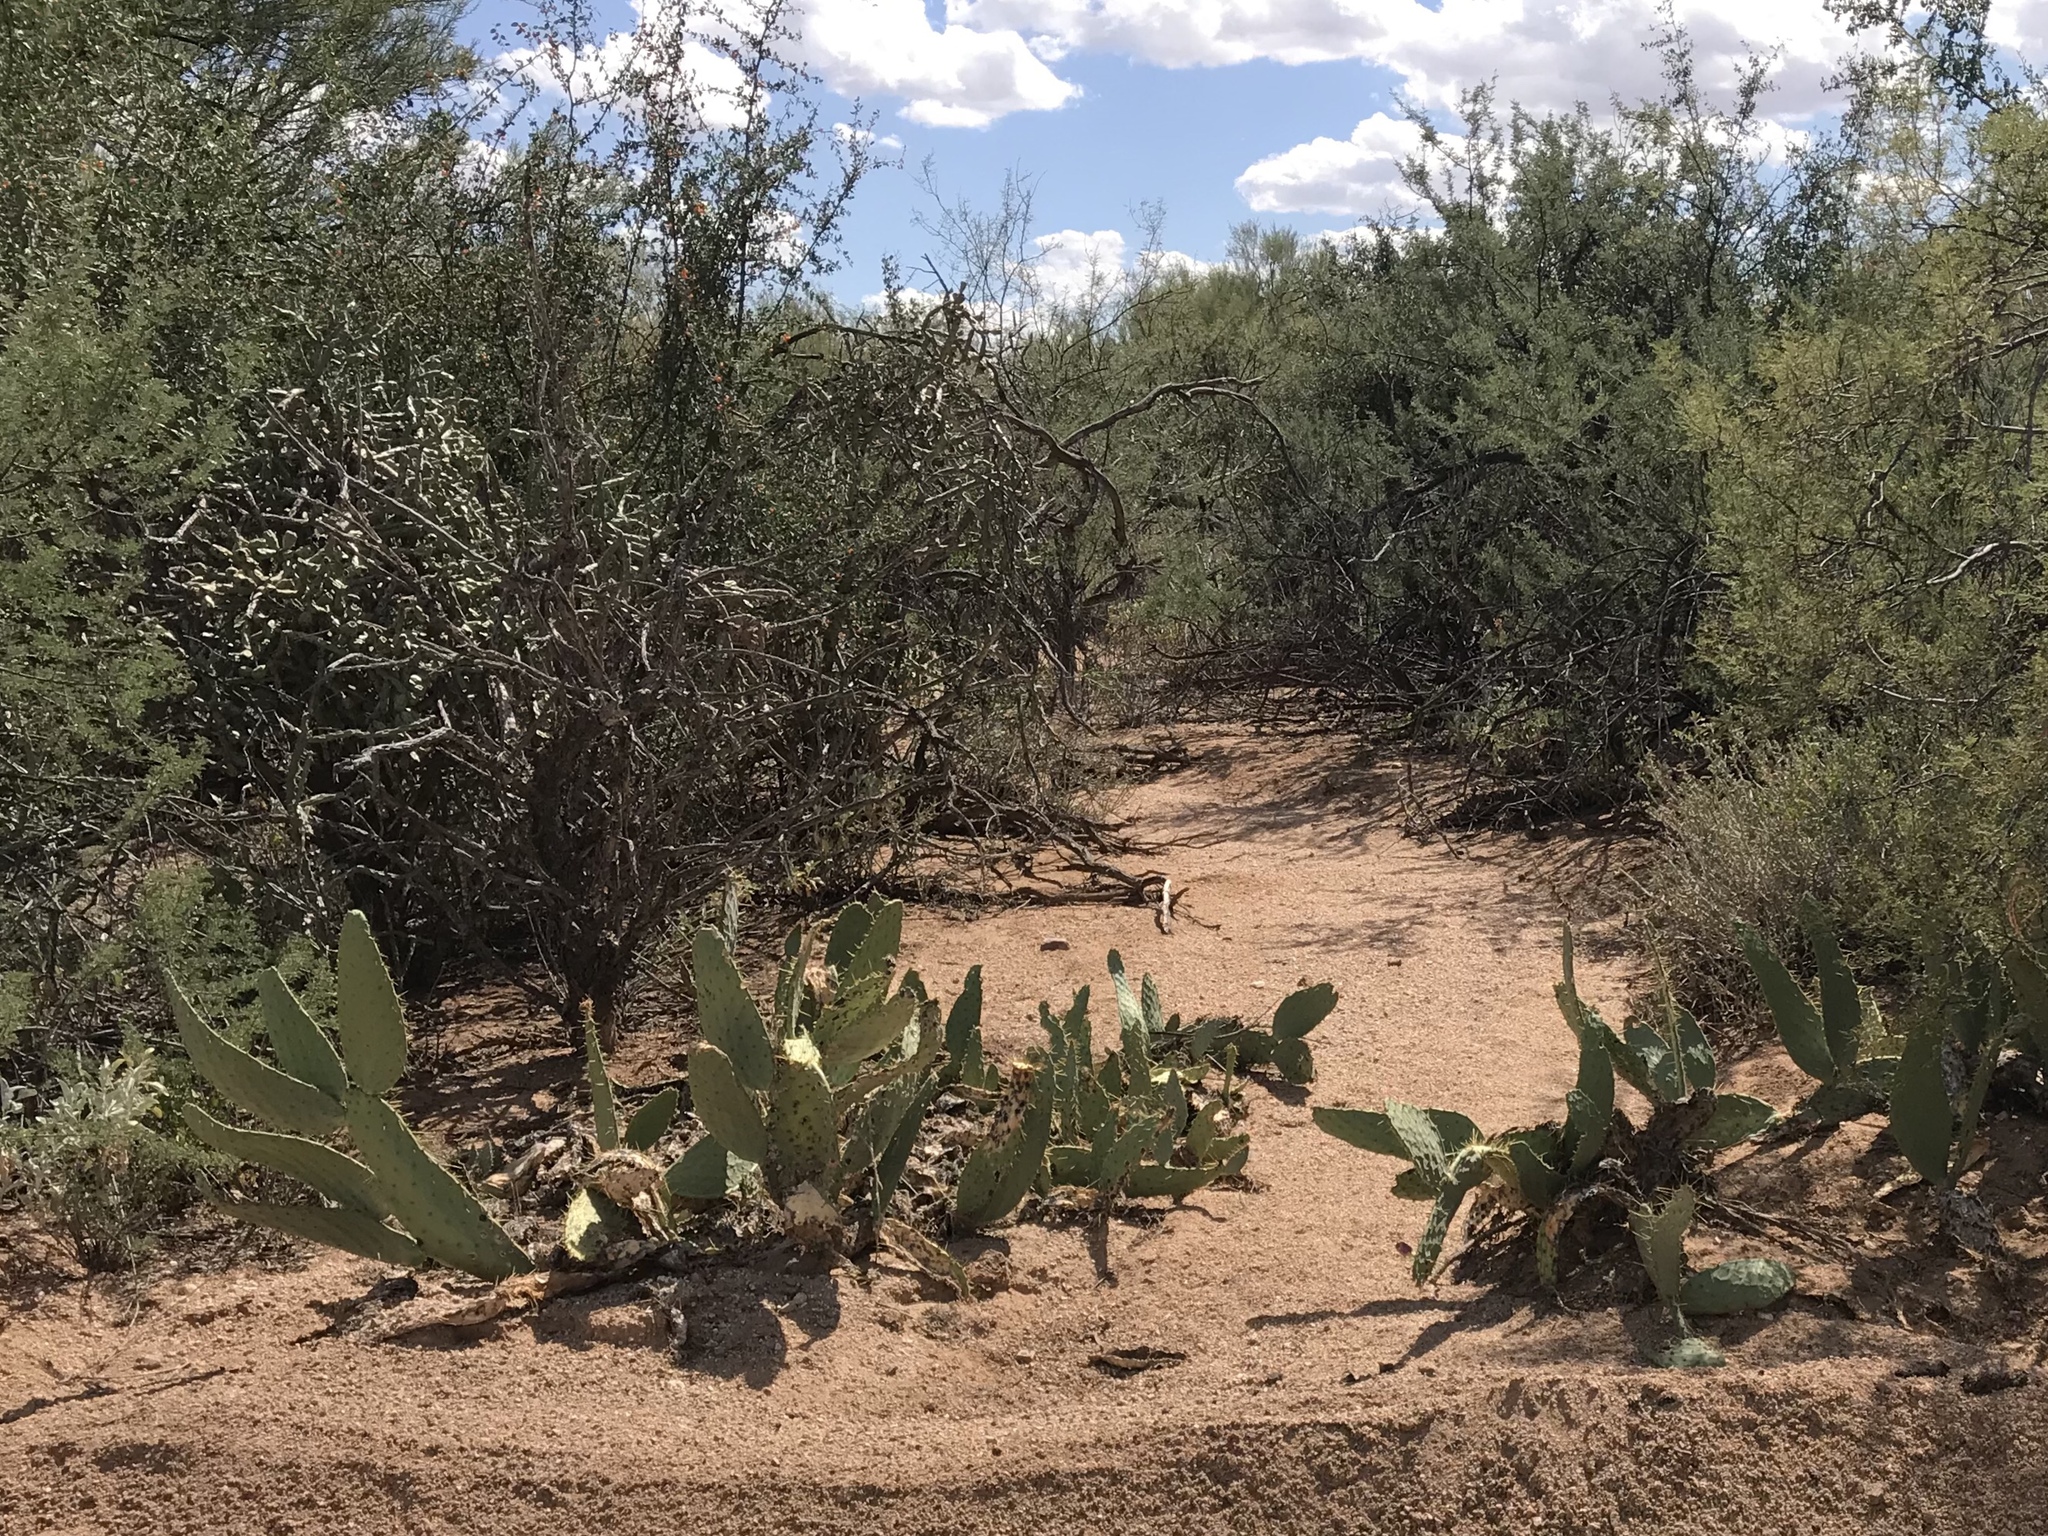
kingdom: Plantae
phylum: Tracheophyta
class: Magnoliopsida
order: Caryophyllales
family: Cactaceae
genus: Opuntia
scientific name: Opuntia engelmannii
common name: Cactus-apple
